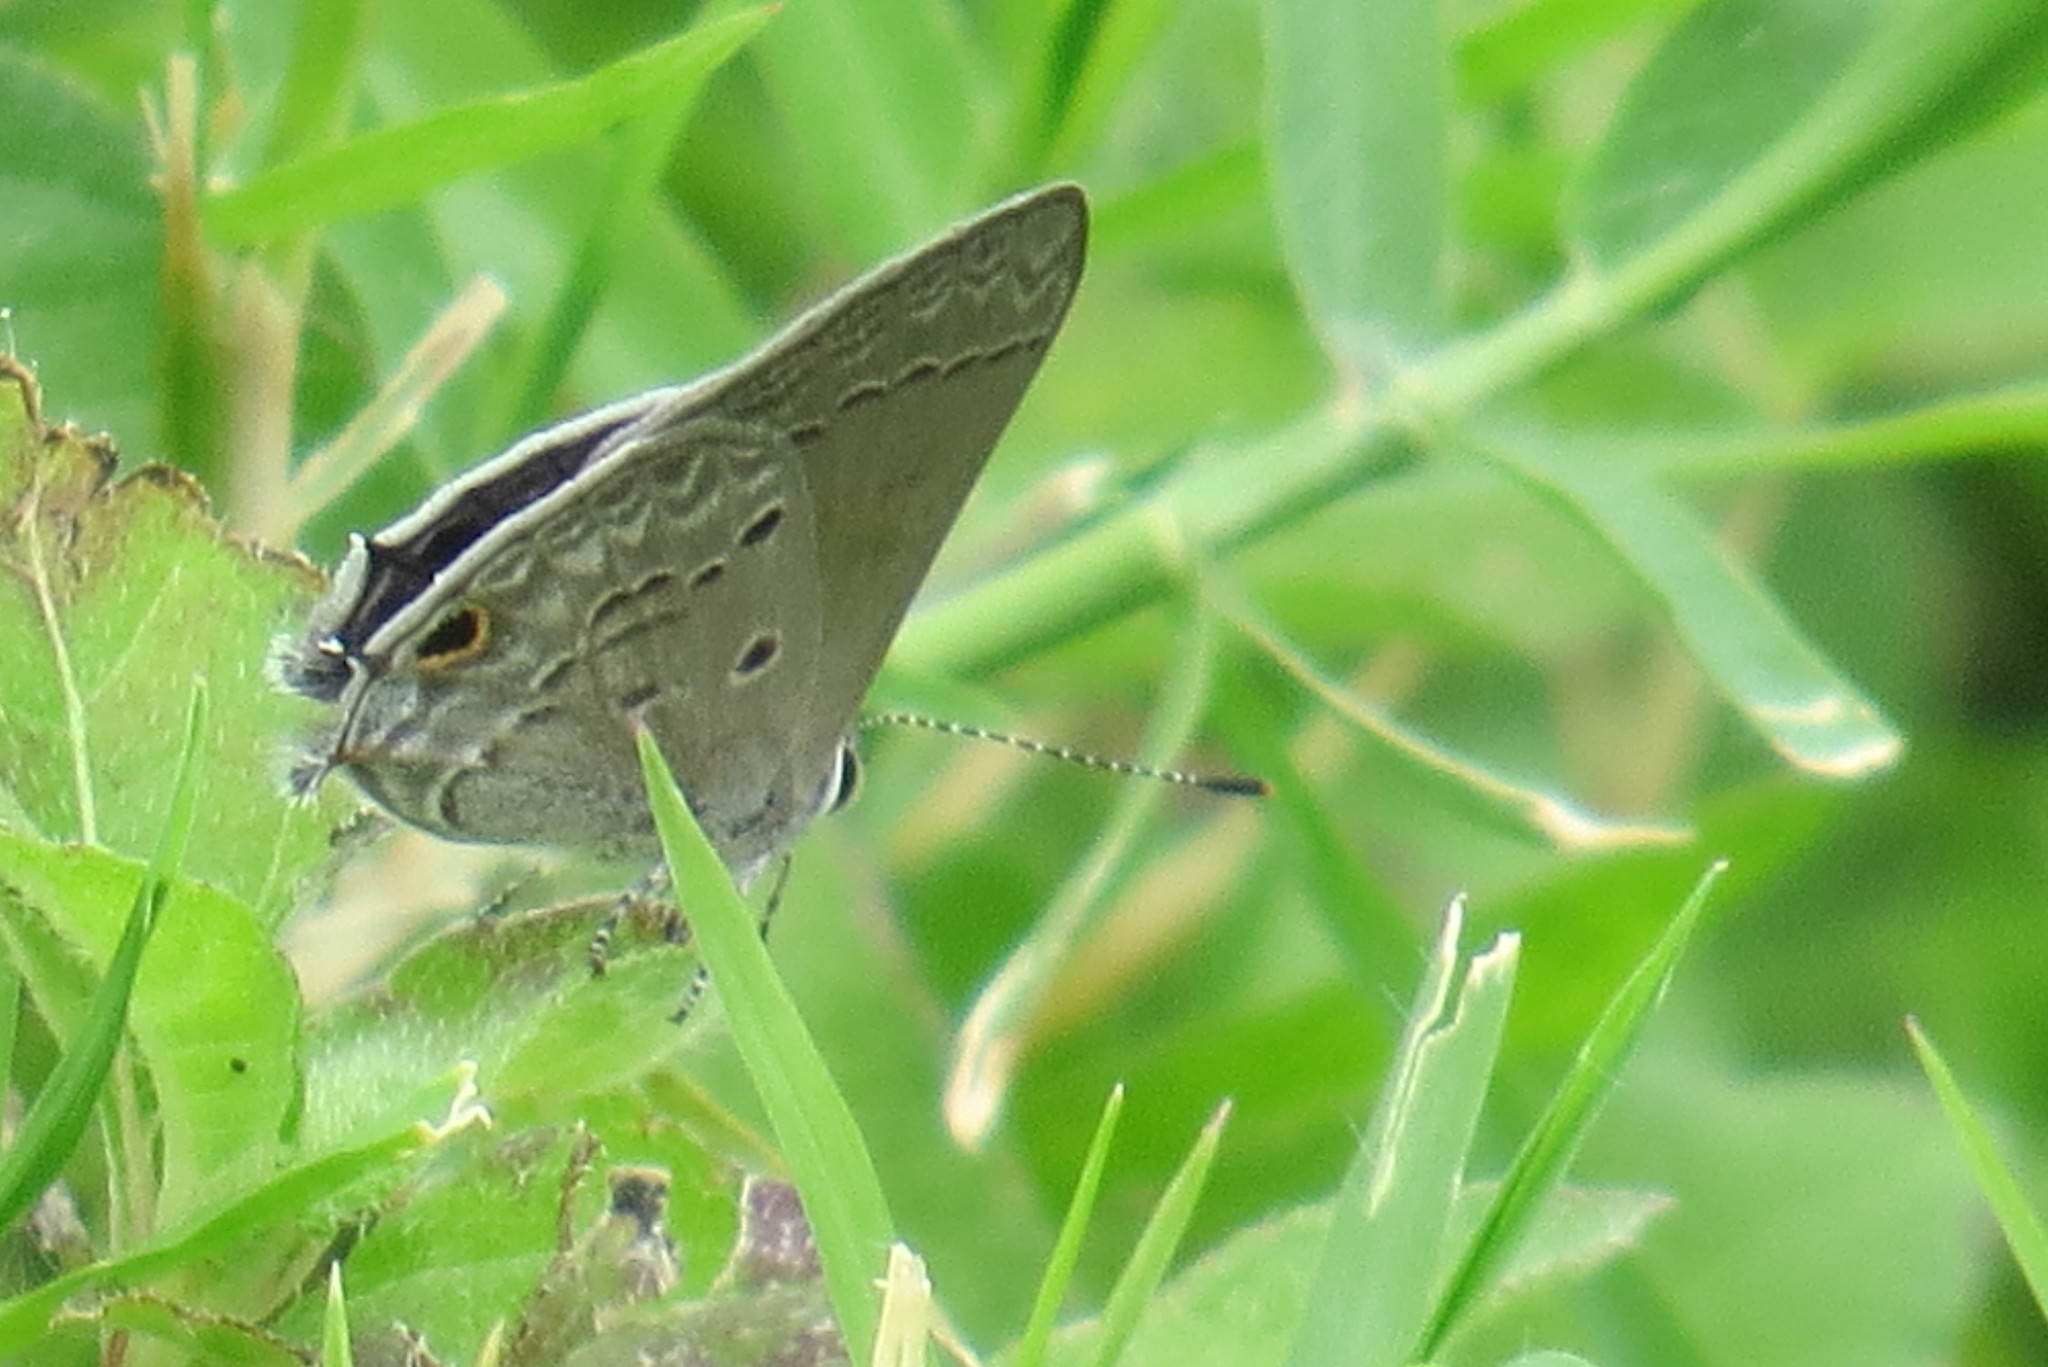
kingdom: Animalia
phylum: Arthropoda
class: Insecta
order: Lepidoptera
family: Lycaenidae
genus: Callicista
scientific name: Callicista columella
